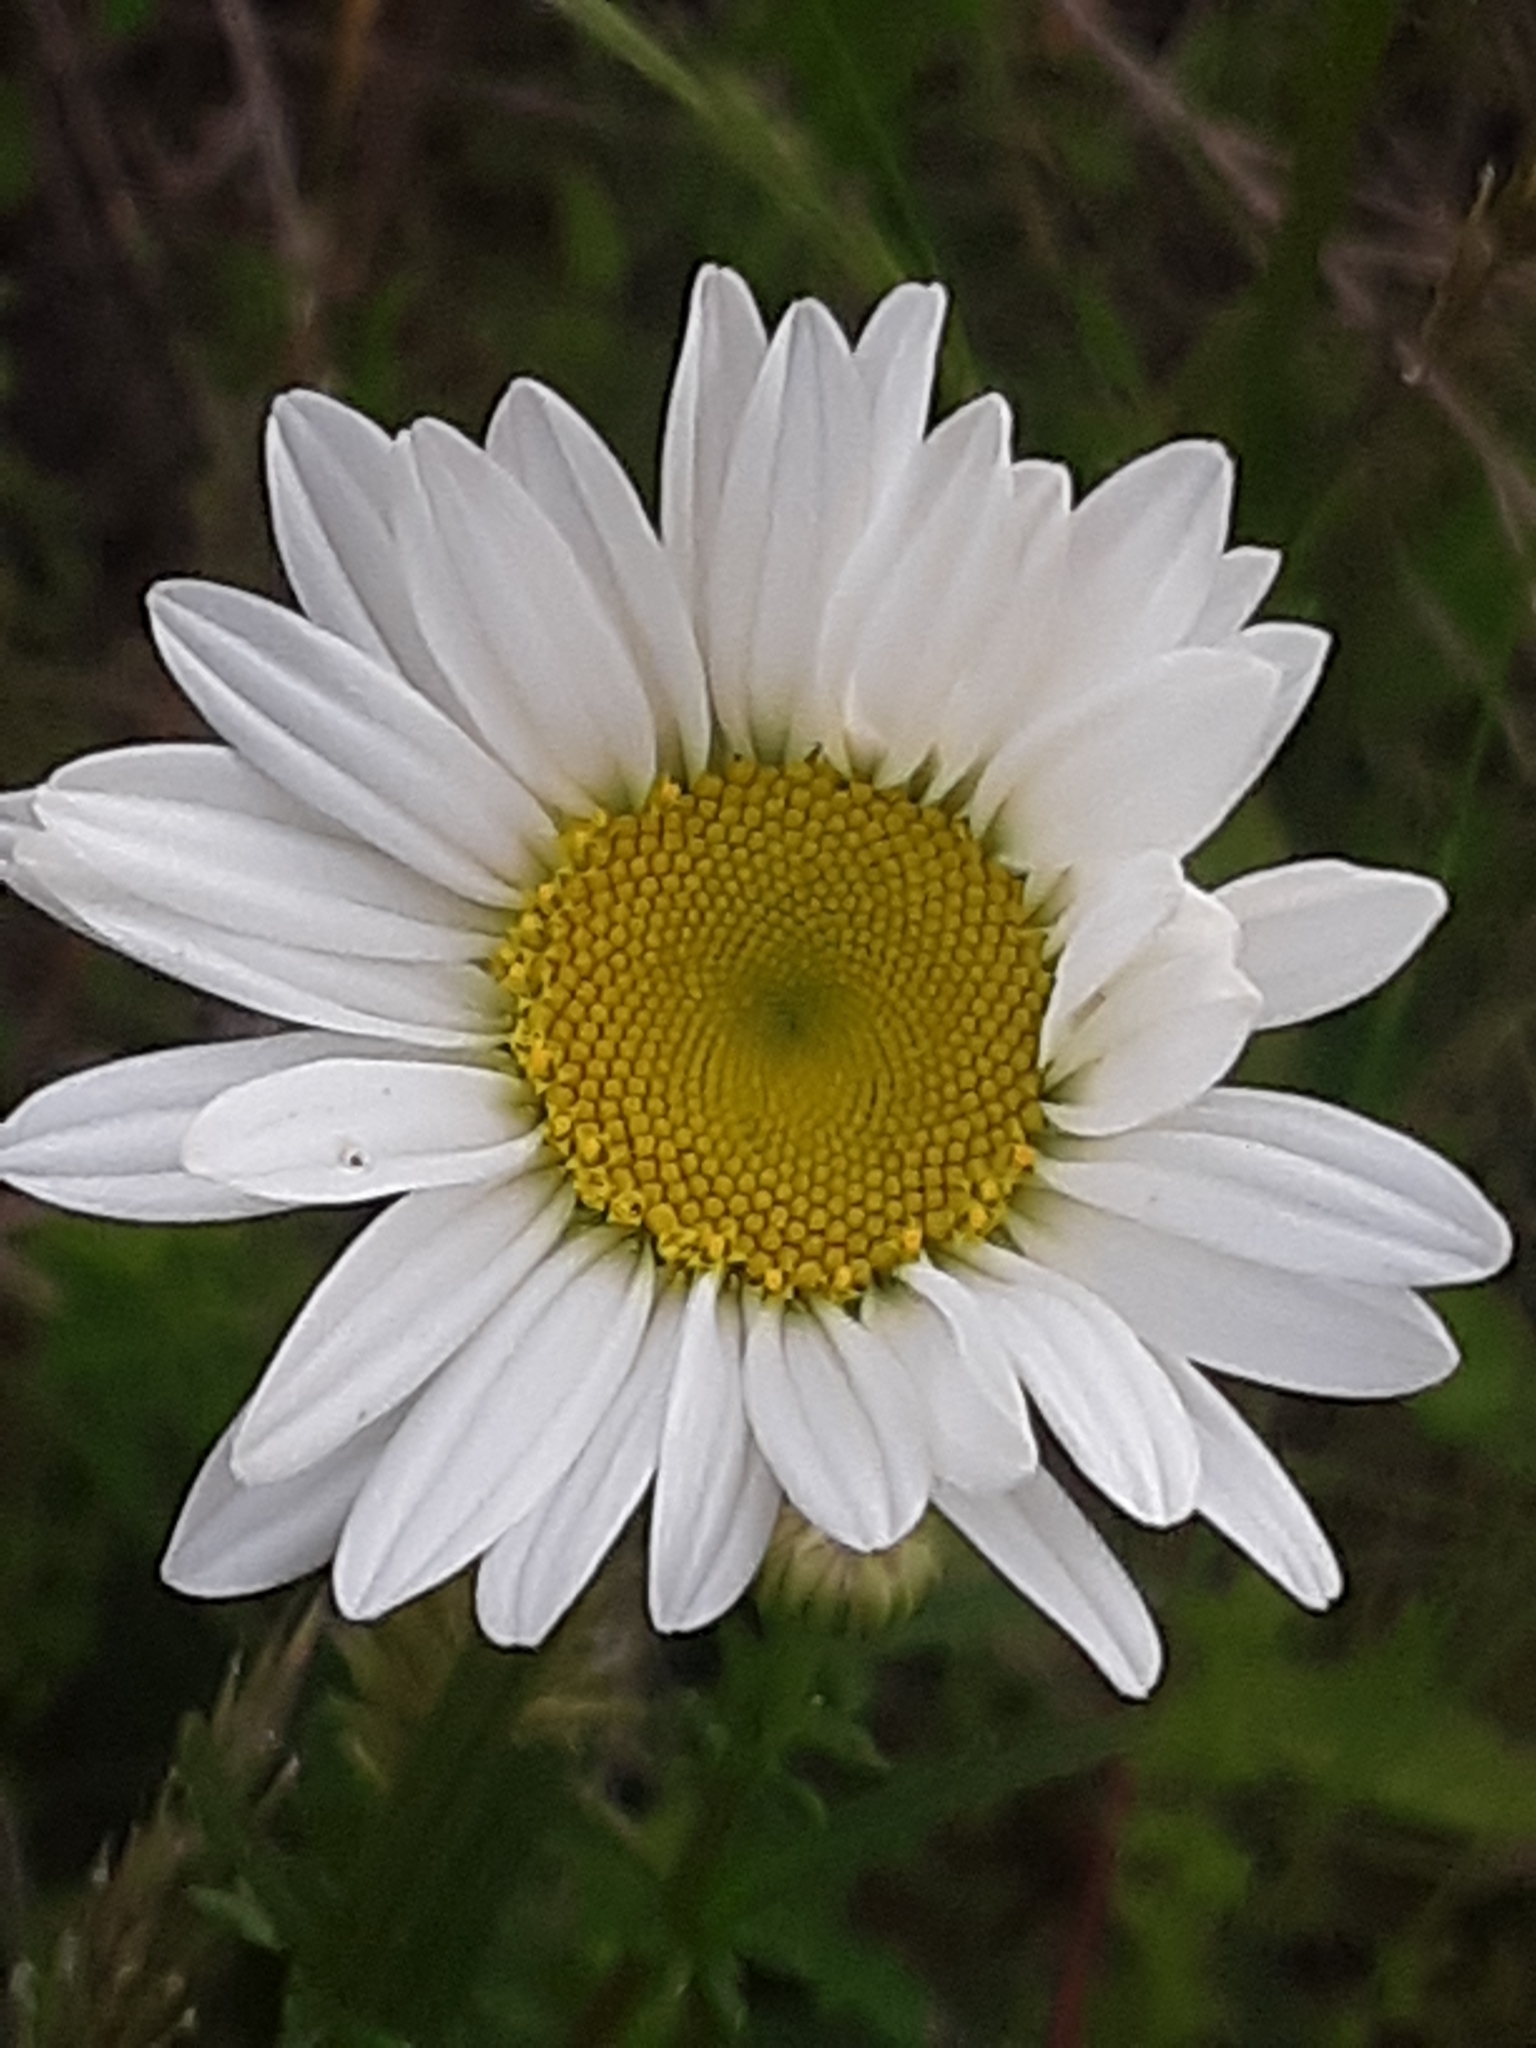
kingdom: Plantae
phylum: Tracheophyta
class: Magnoliopsida
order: Asterales
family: Asteraceae
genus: Leucanthemum
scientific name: Leucanthemum vulgare
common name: Oxeye daisy
